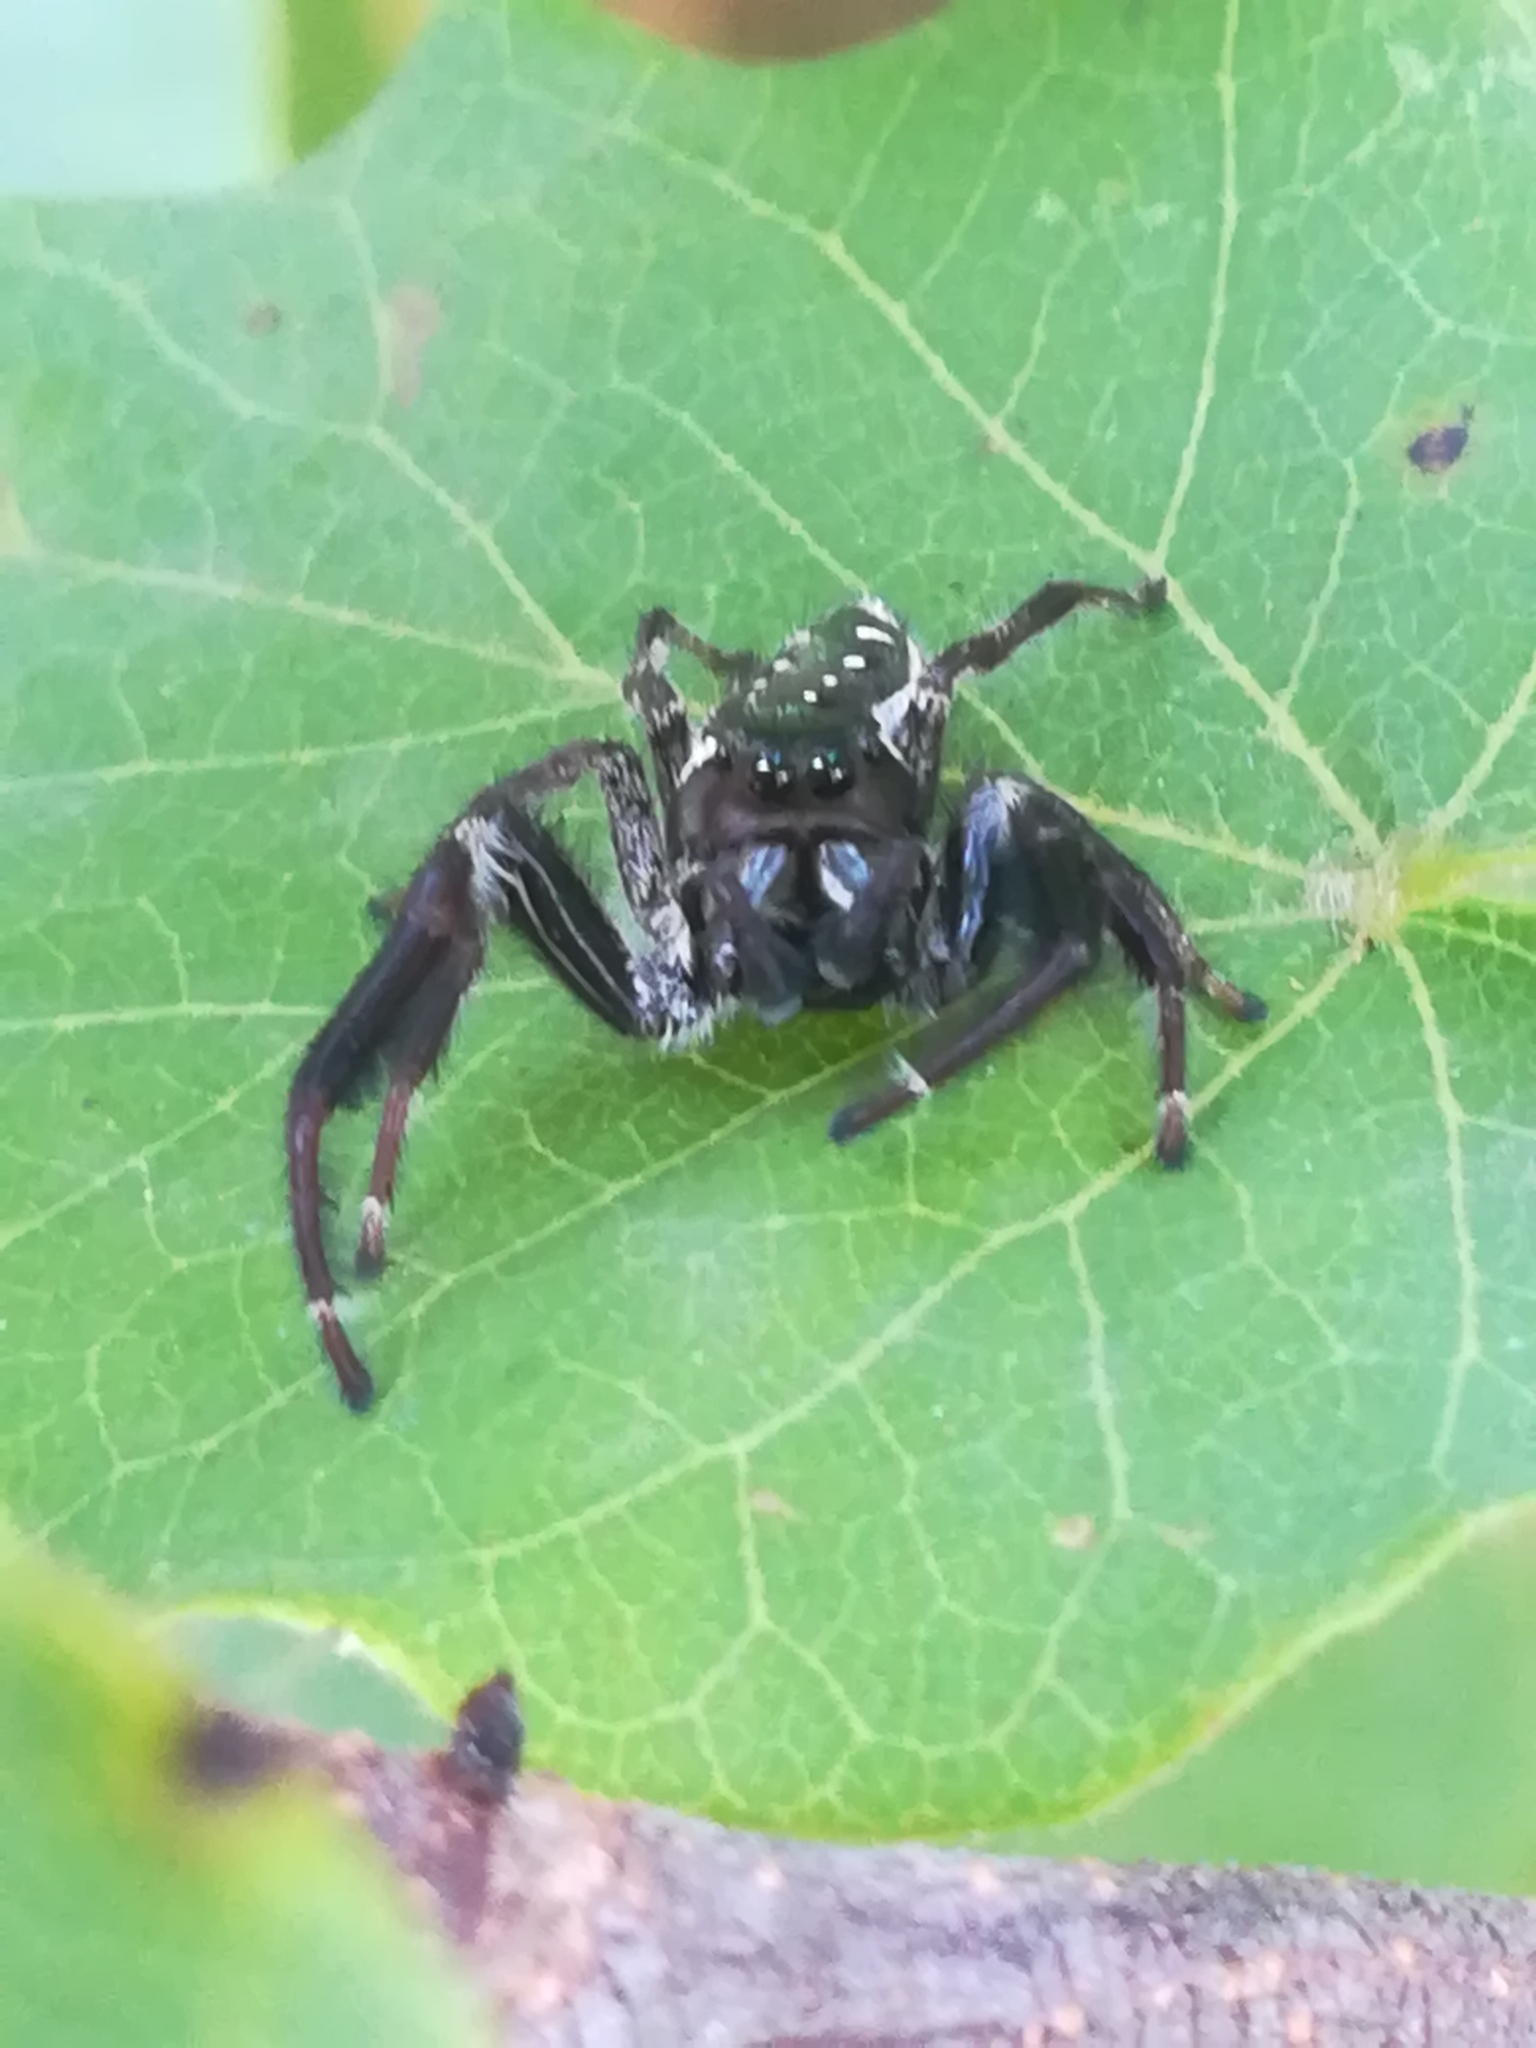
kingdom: Animalia
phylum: Arthropoda
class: Arachnida
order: Araneae
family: Salticidae
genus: Paraphidippus
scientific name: Paraphidippus aurantius
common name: Jumping spiders
